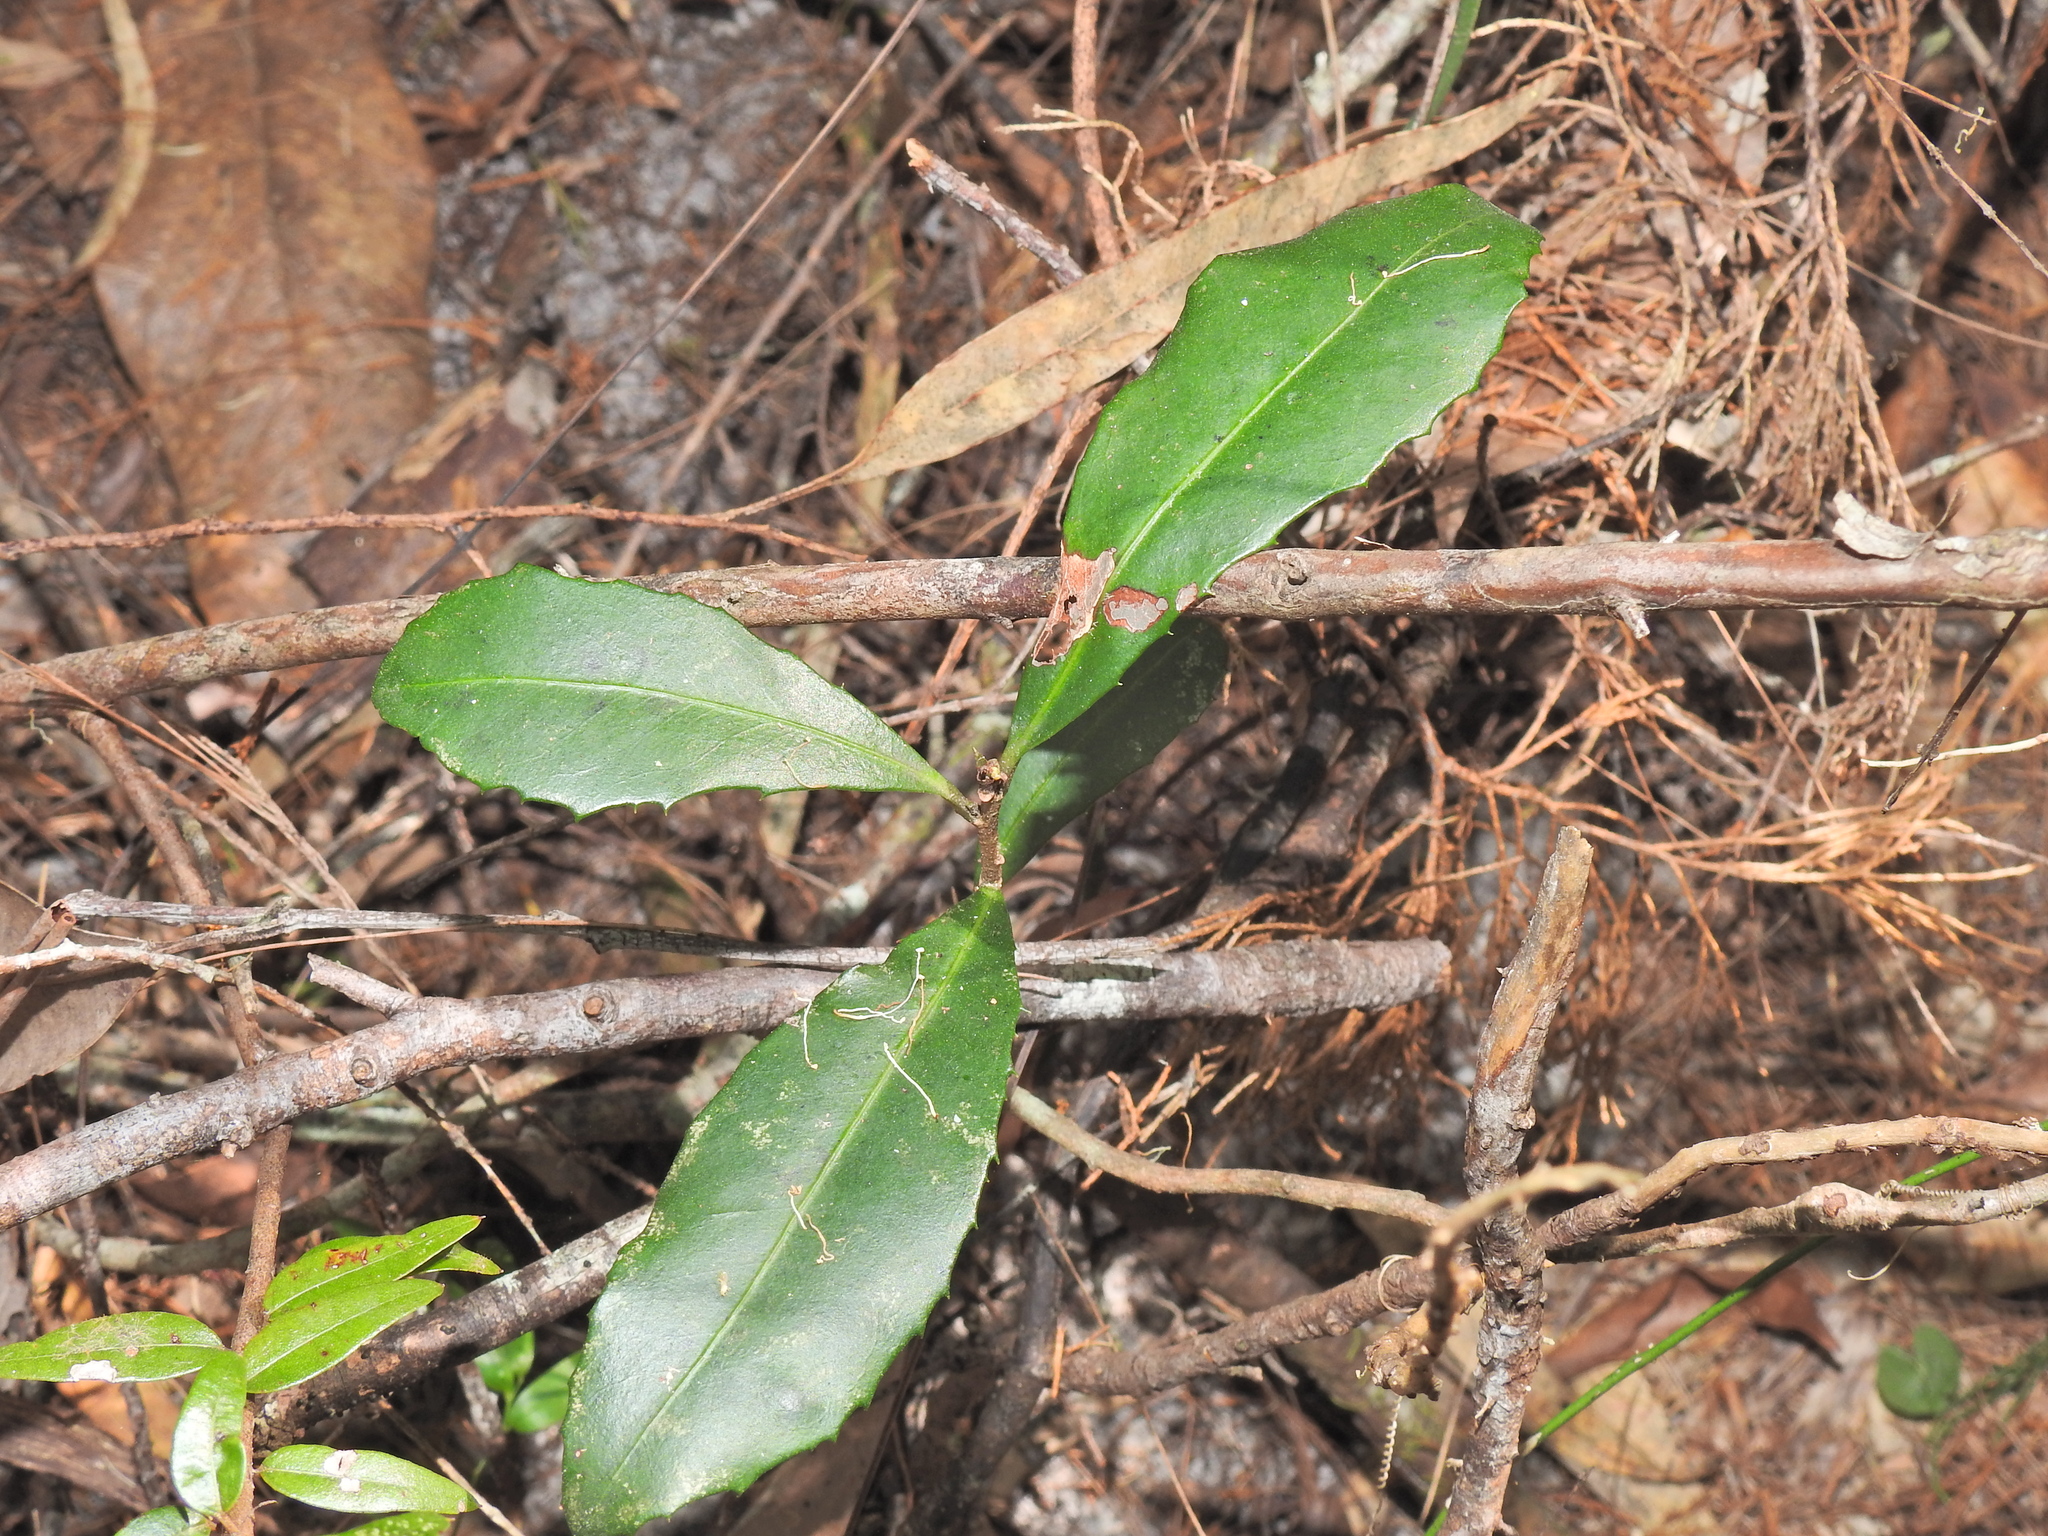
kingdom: Plantae
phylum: Tracheophyta
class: Magnoliopsida
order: Ericales
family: Primulaceae
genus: Myrsine
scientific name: Myrsine variabilis
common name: Brush muttonwood
